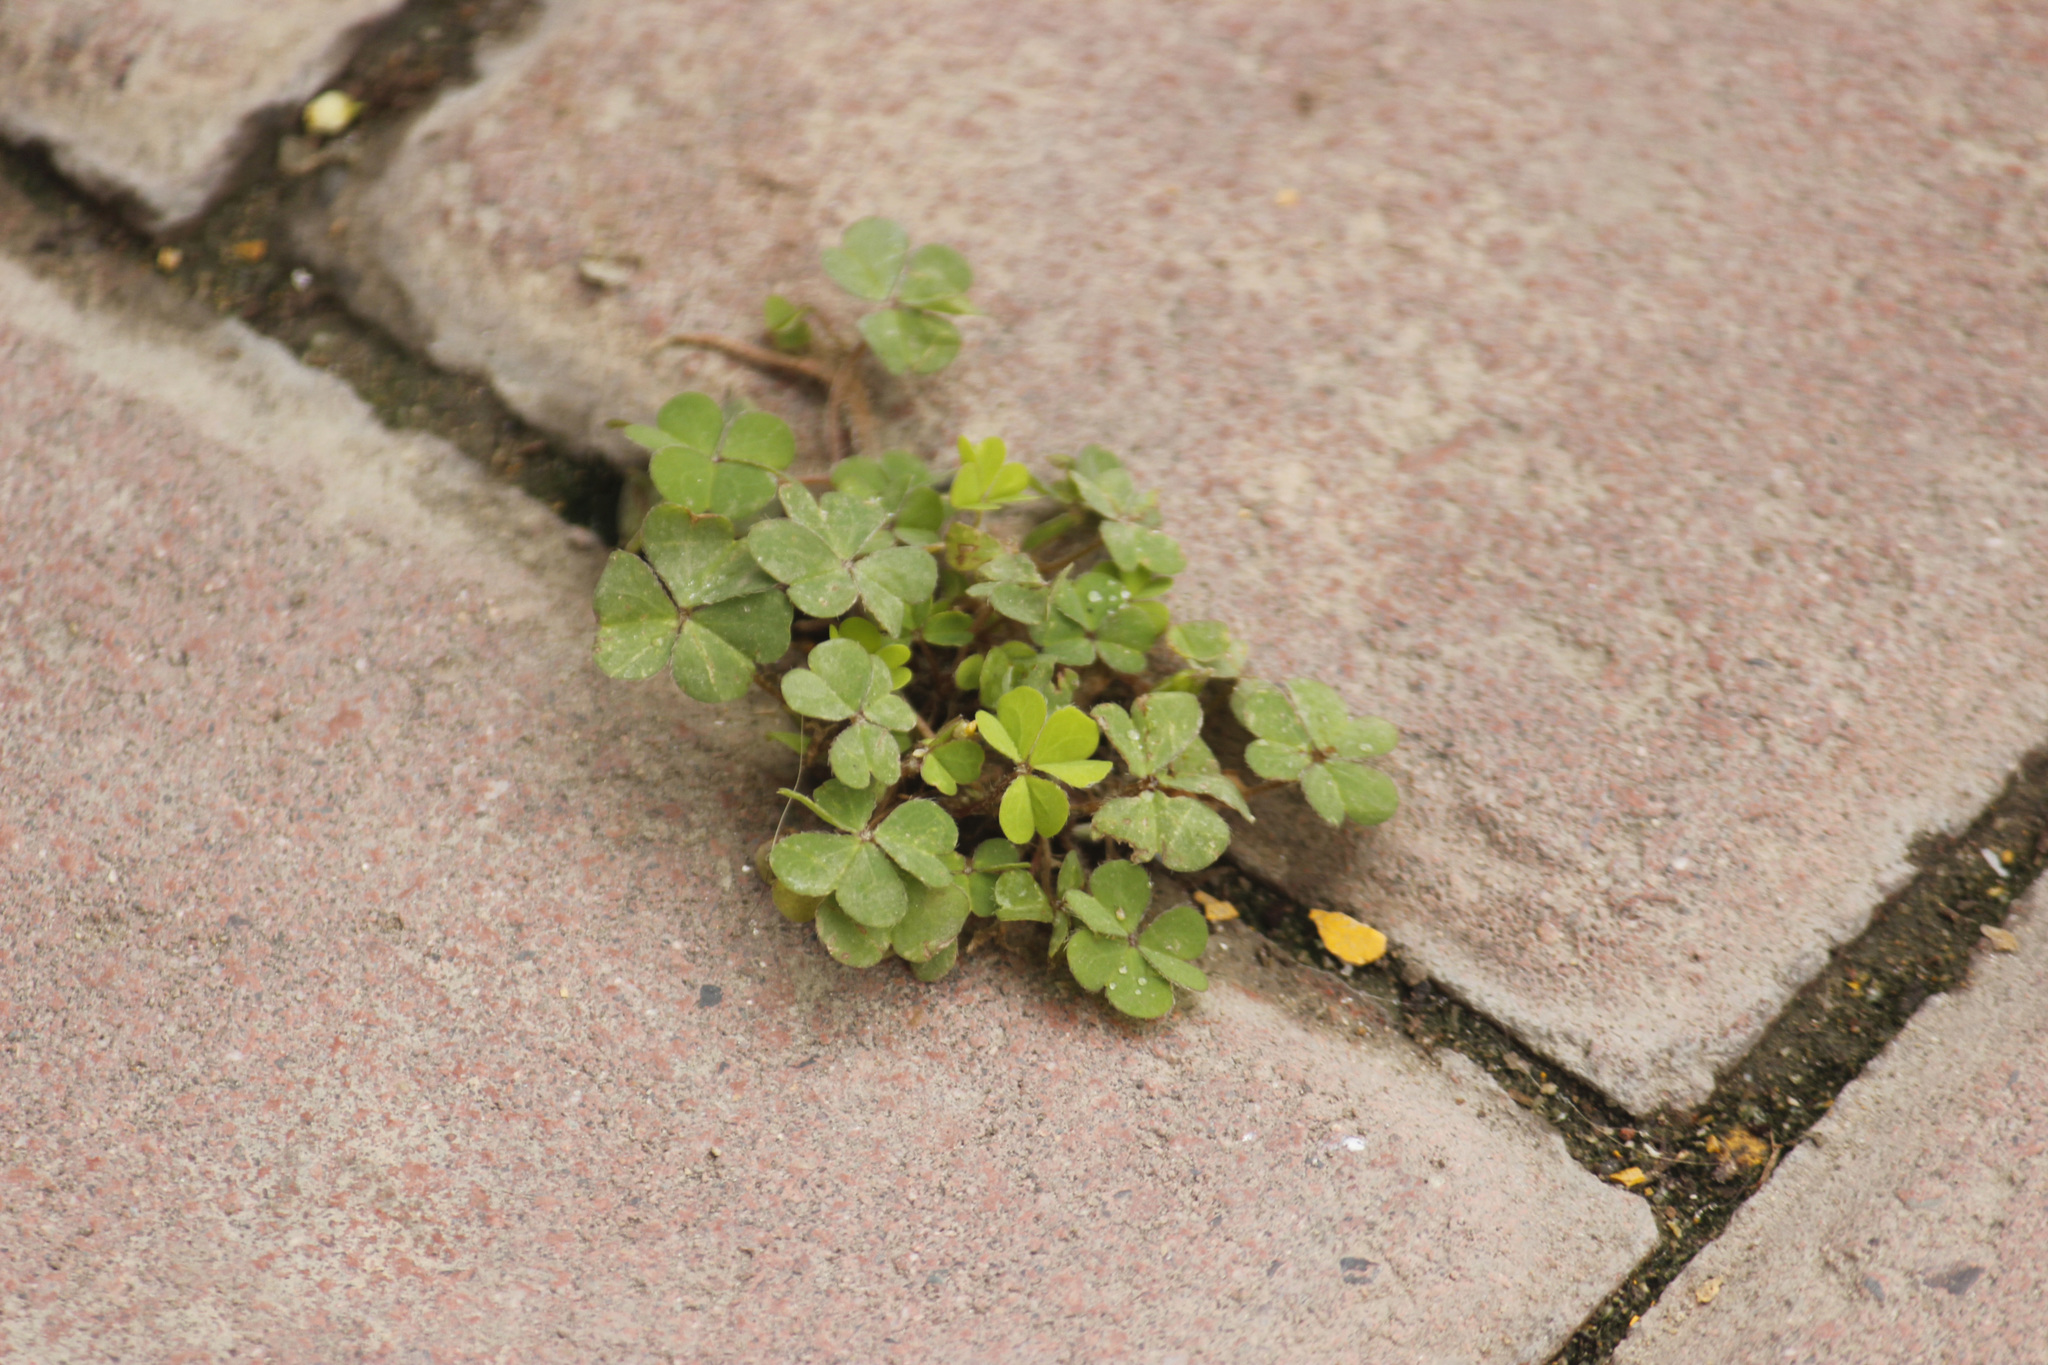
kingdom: Plantae
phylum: Tracheophyta
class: Magnoliopsida
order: Oxalidales
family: Oxalidaceae
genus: Oxalis
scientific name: Oxalis corniculata
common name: Procumbent yellow-sorrel
